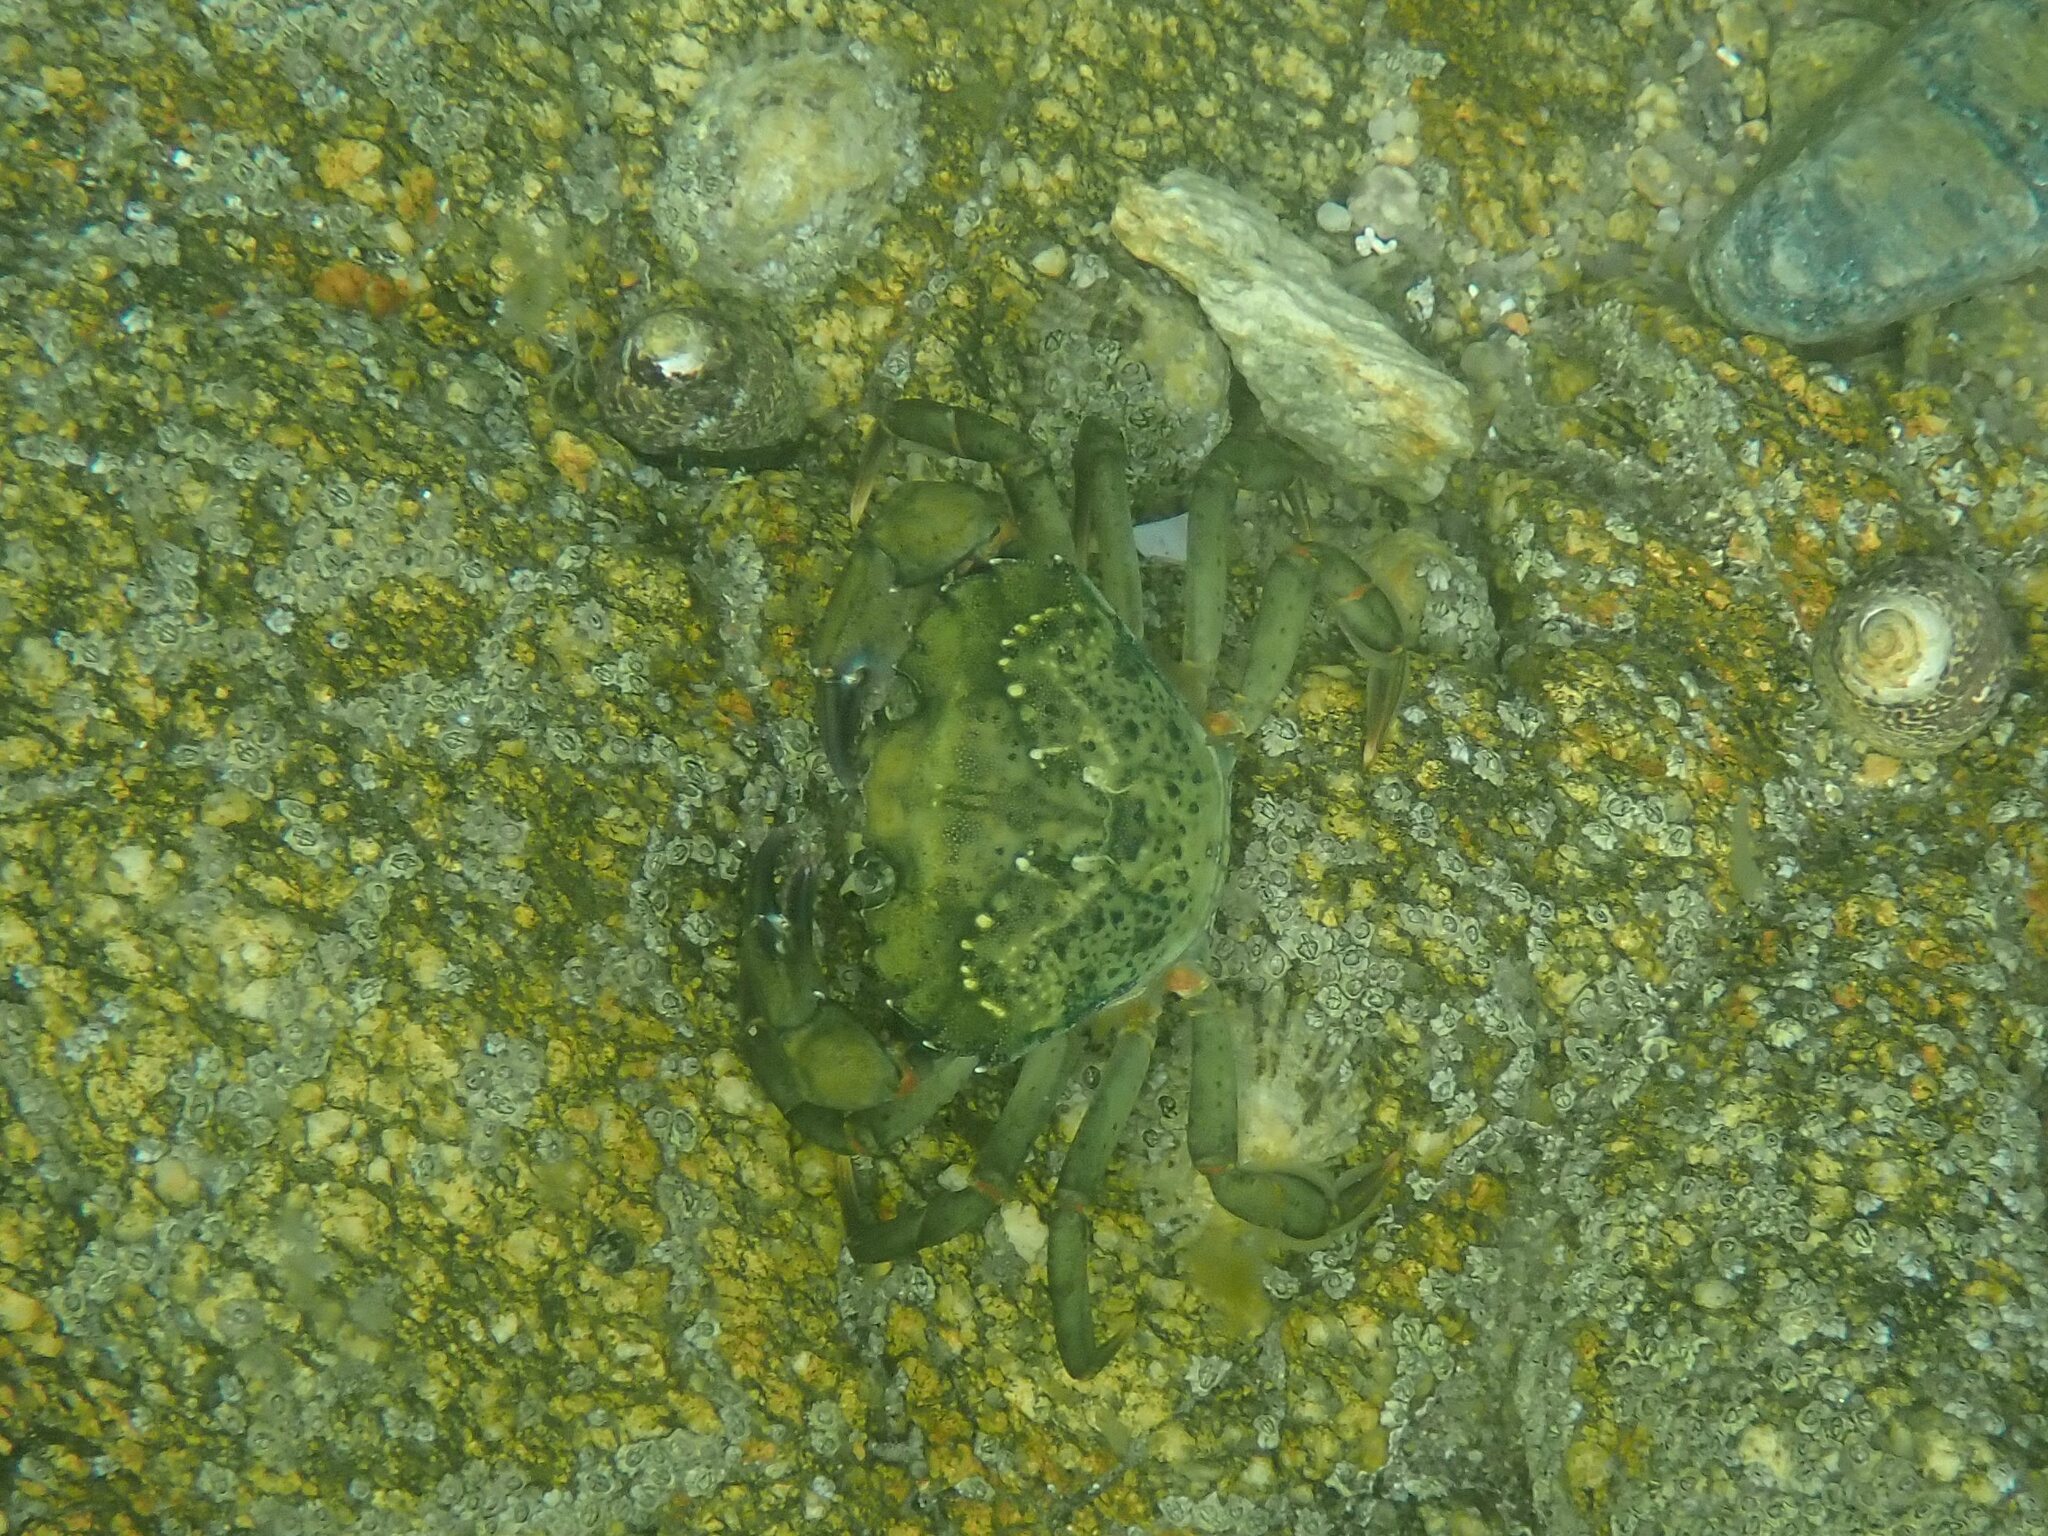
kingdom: Animalia
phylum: Arthropoda
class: Malacostraca
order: Decapoda
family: Carcinidae
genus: Carcinus
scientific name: Carcinus maenas
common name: European green crab
